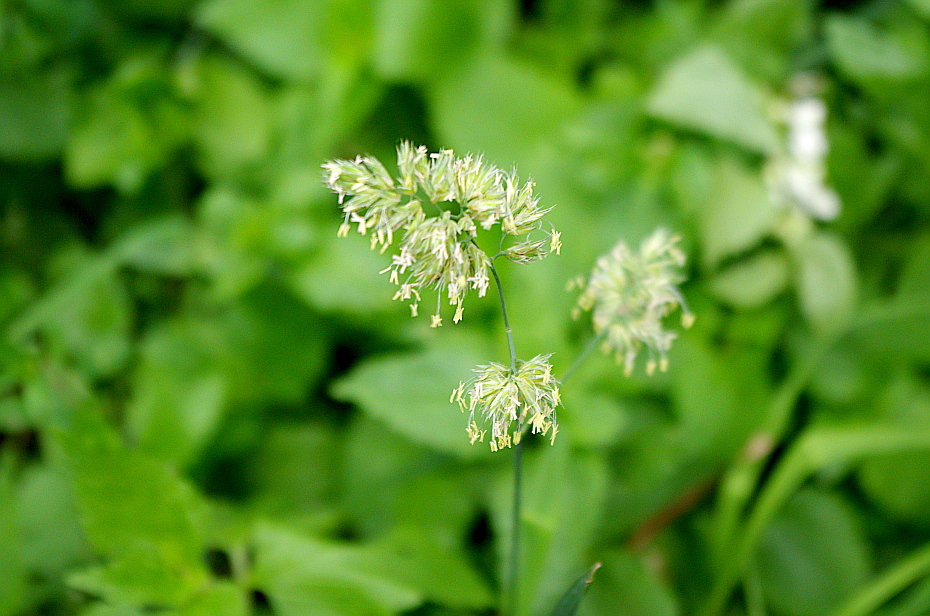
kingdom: Plantae
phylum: Tracheophyta
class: Liliopsida
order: Poales
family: Poaceae
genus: Dactylis
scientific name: Dactylis glomerata
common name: Orchardgrass
